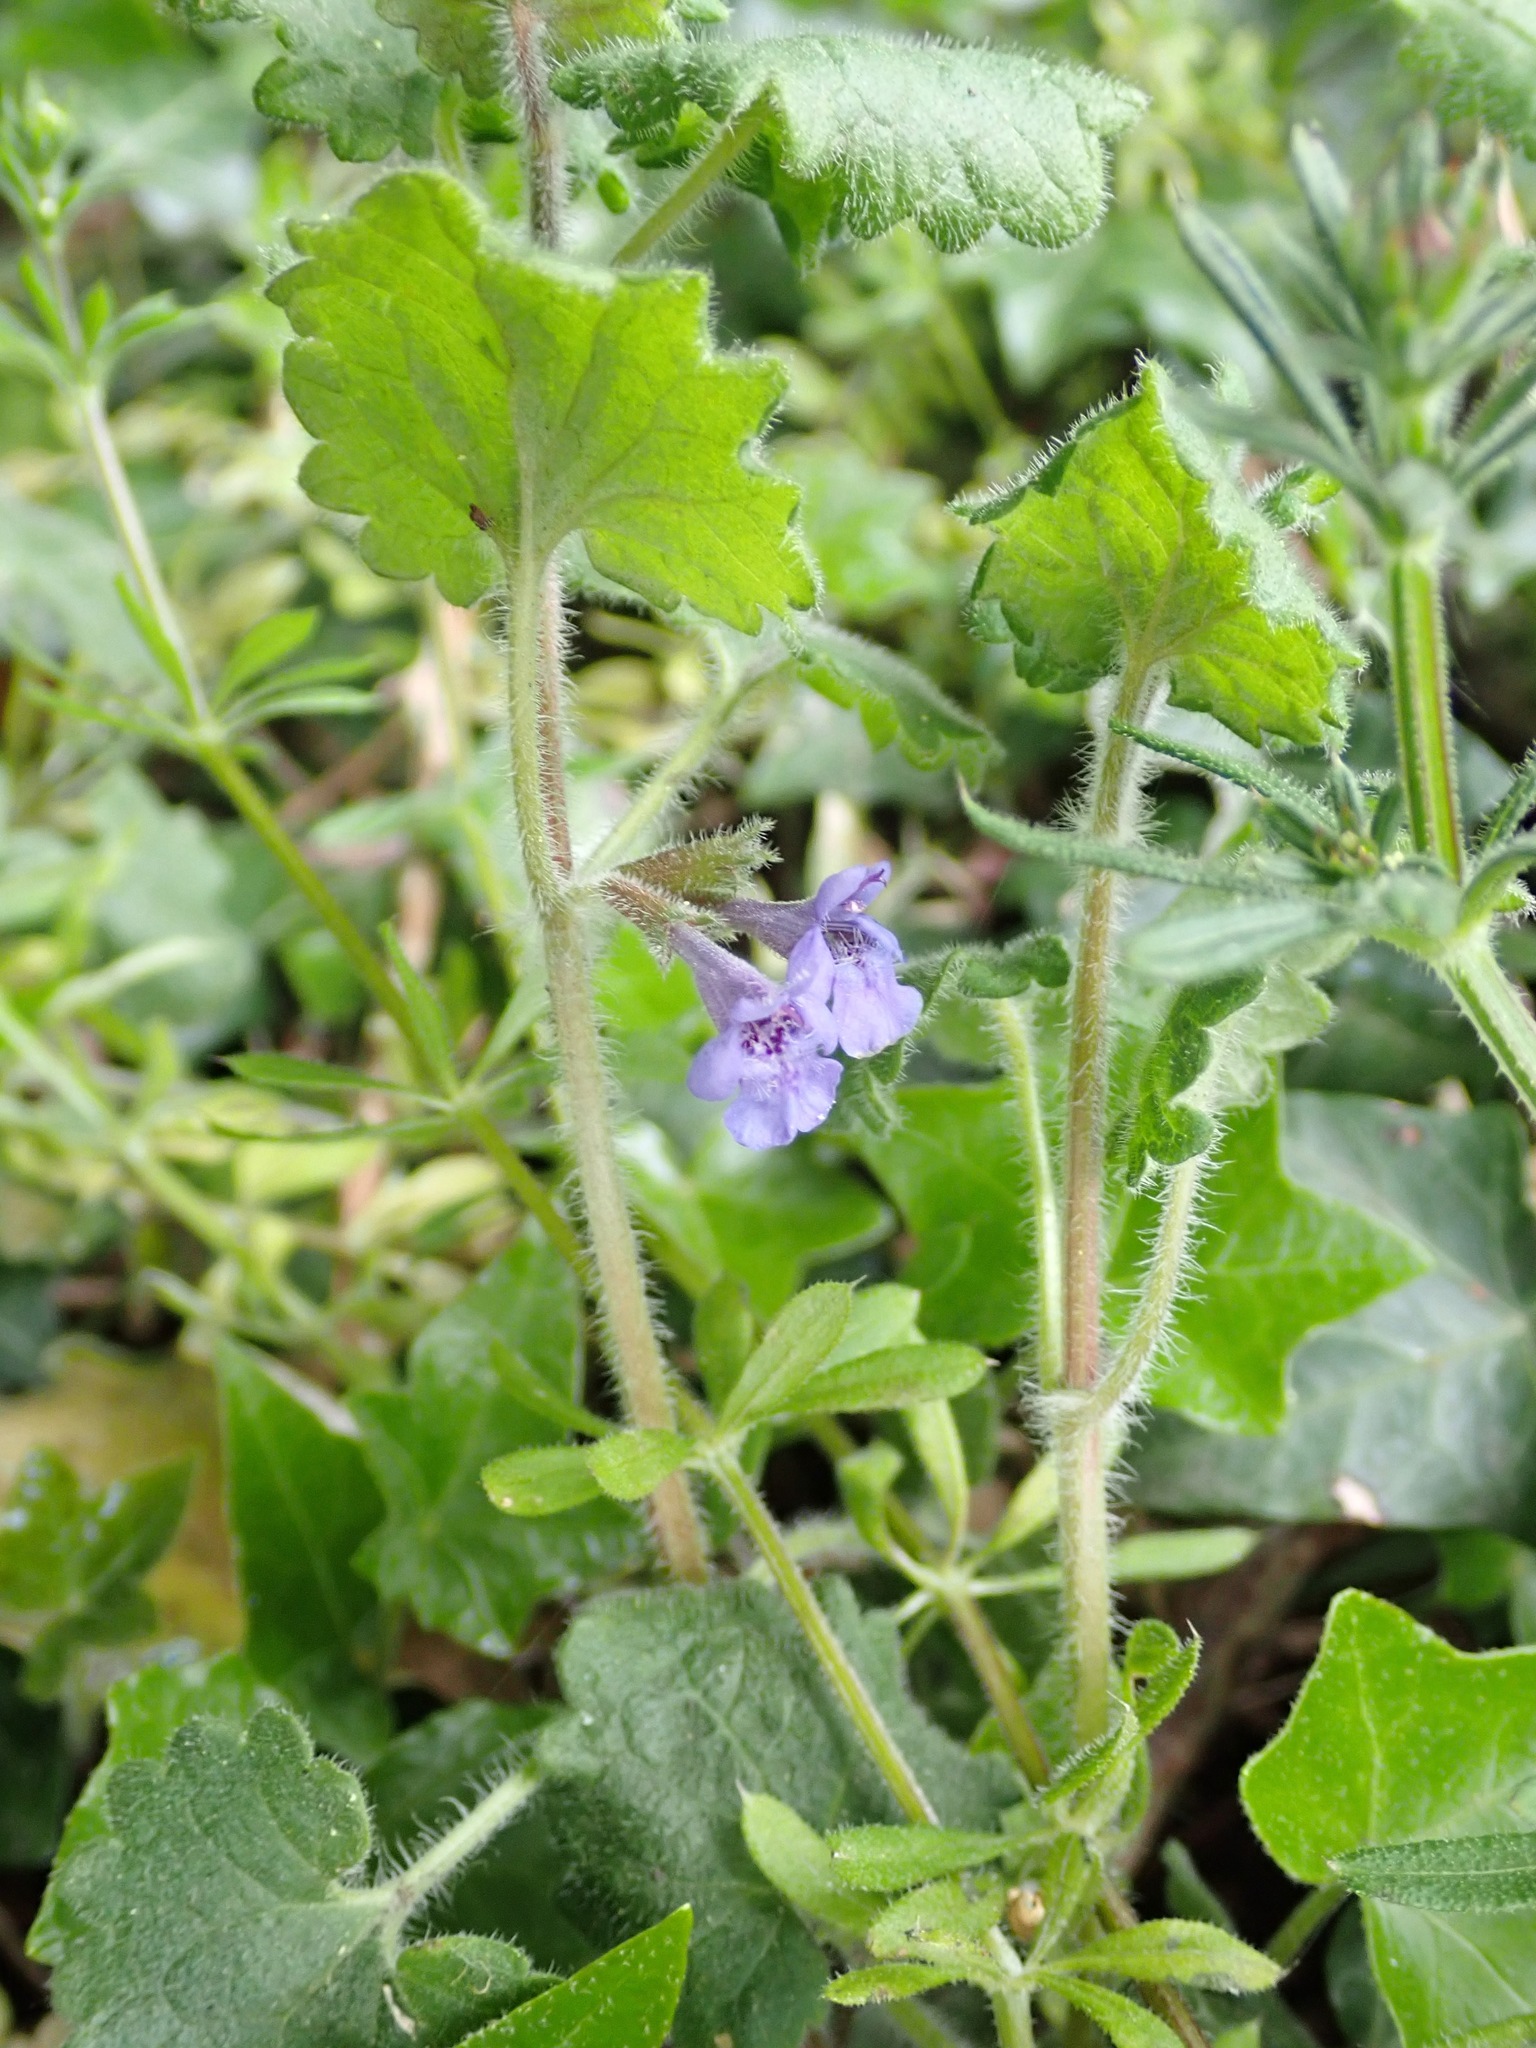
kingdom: Plantae
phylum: Tracheophyta
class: Magnoliopsida
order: Lamiales
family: Lamiaceae
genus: Glechoma
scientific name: Glechoma hederacea
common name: Ground ivy
